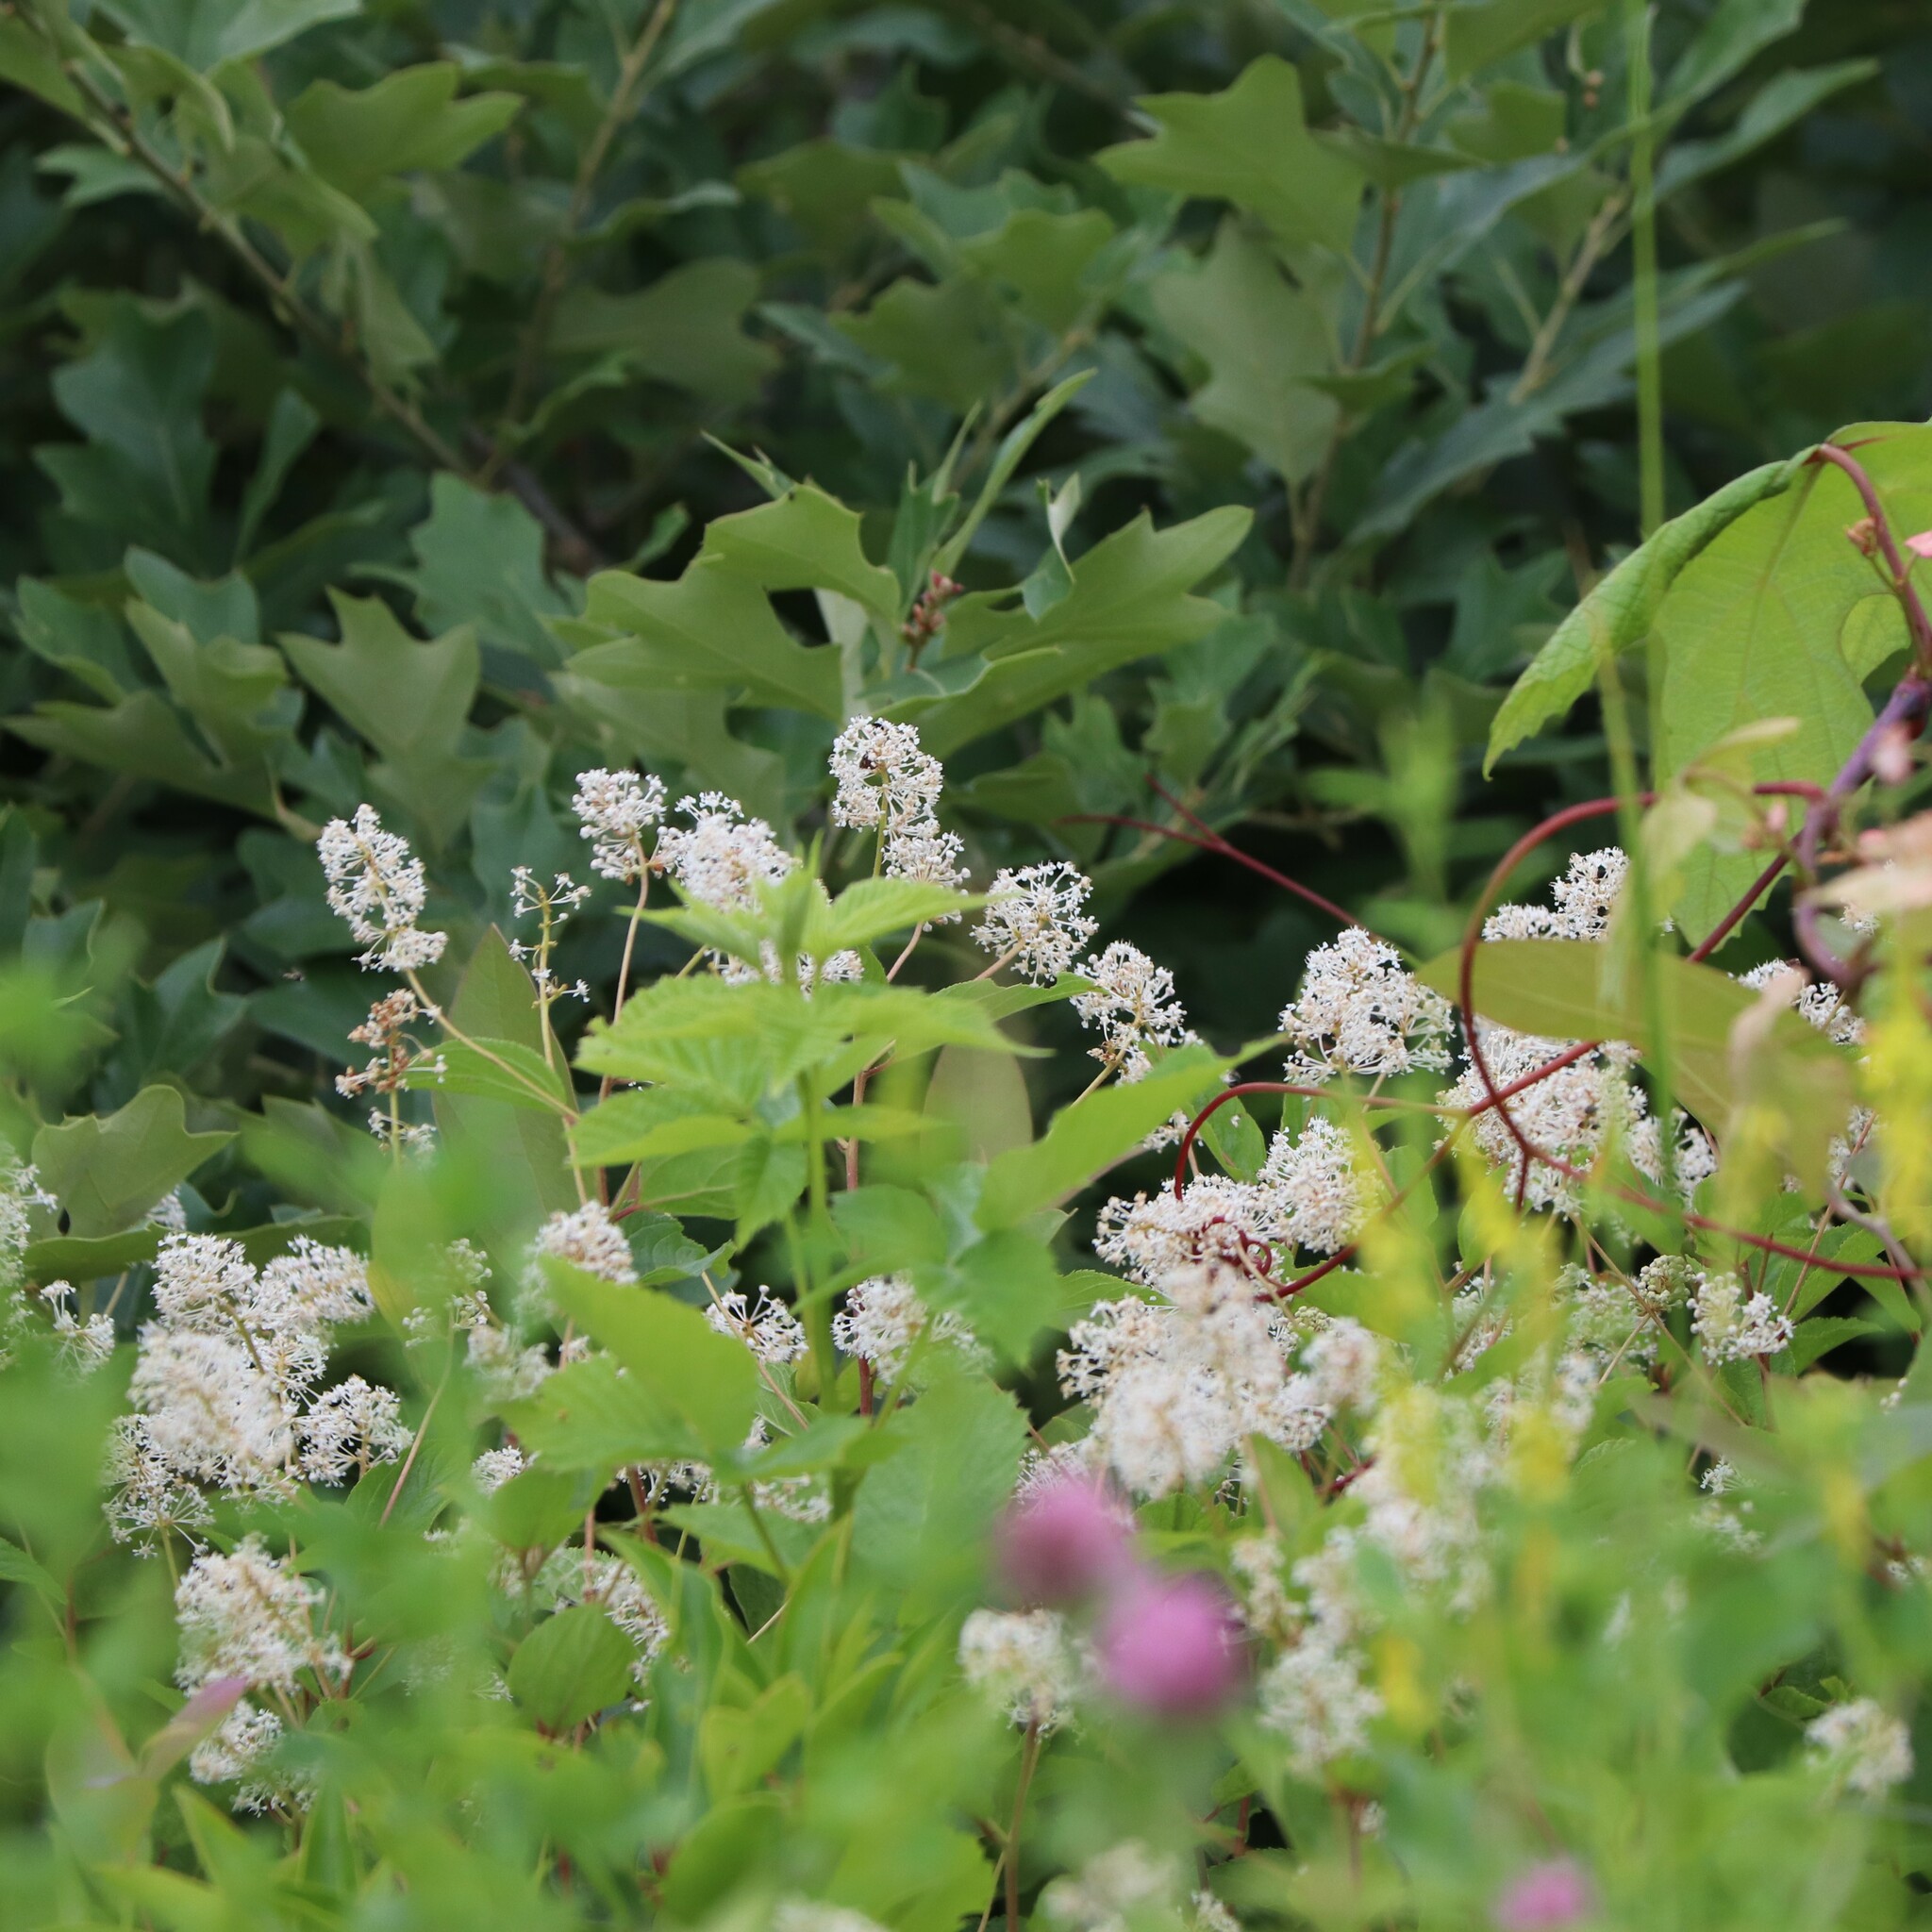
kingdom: Plantae
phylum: Tracheophyta
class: Magnoliopsida
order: Rosales
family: Rhamnaceae
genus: Ceanothus
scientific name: Ceanothus americanus
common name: Redroot
